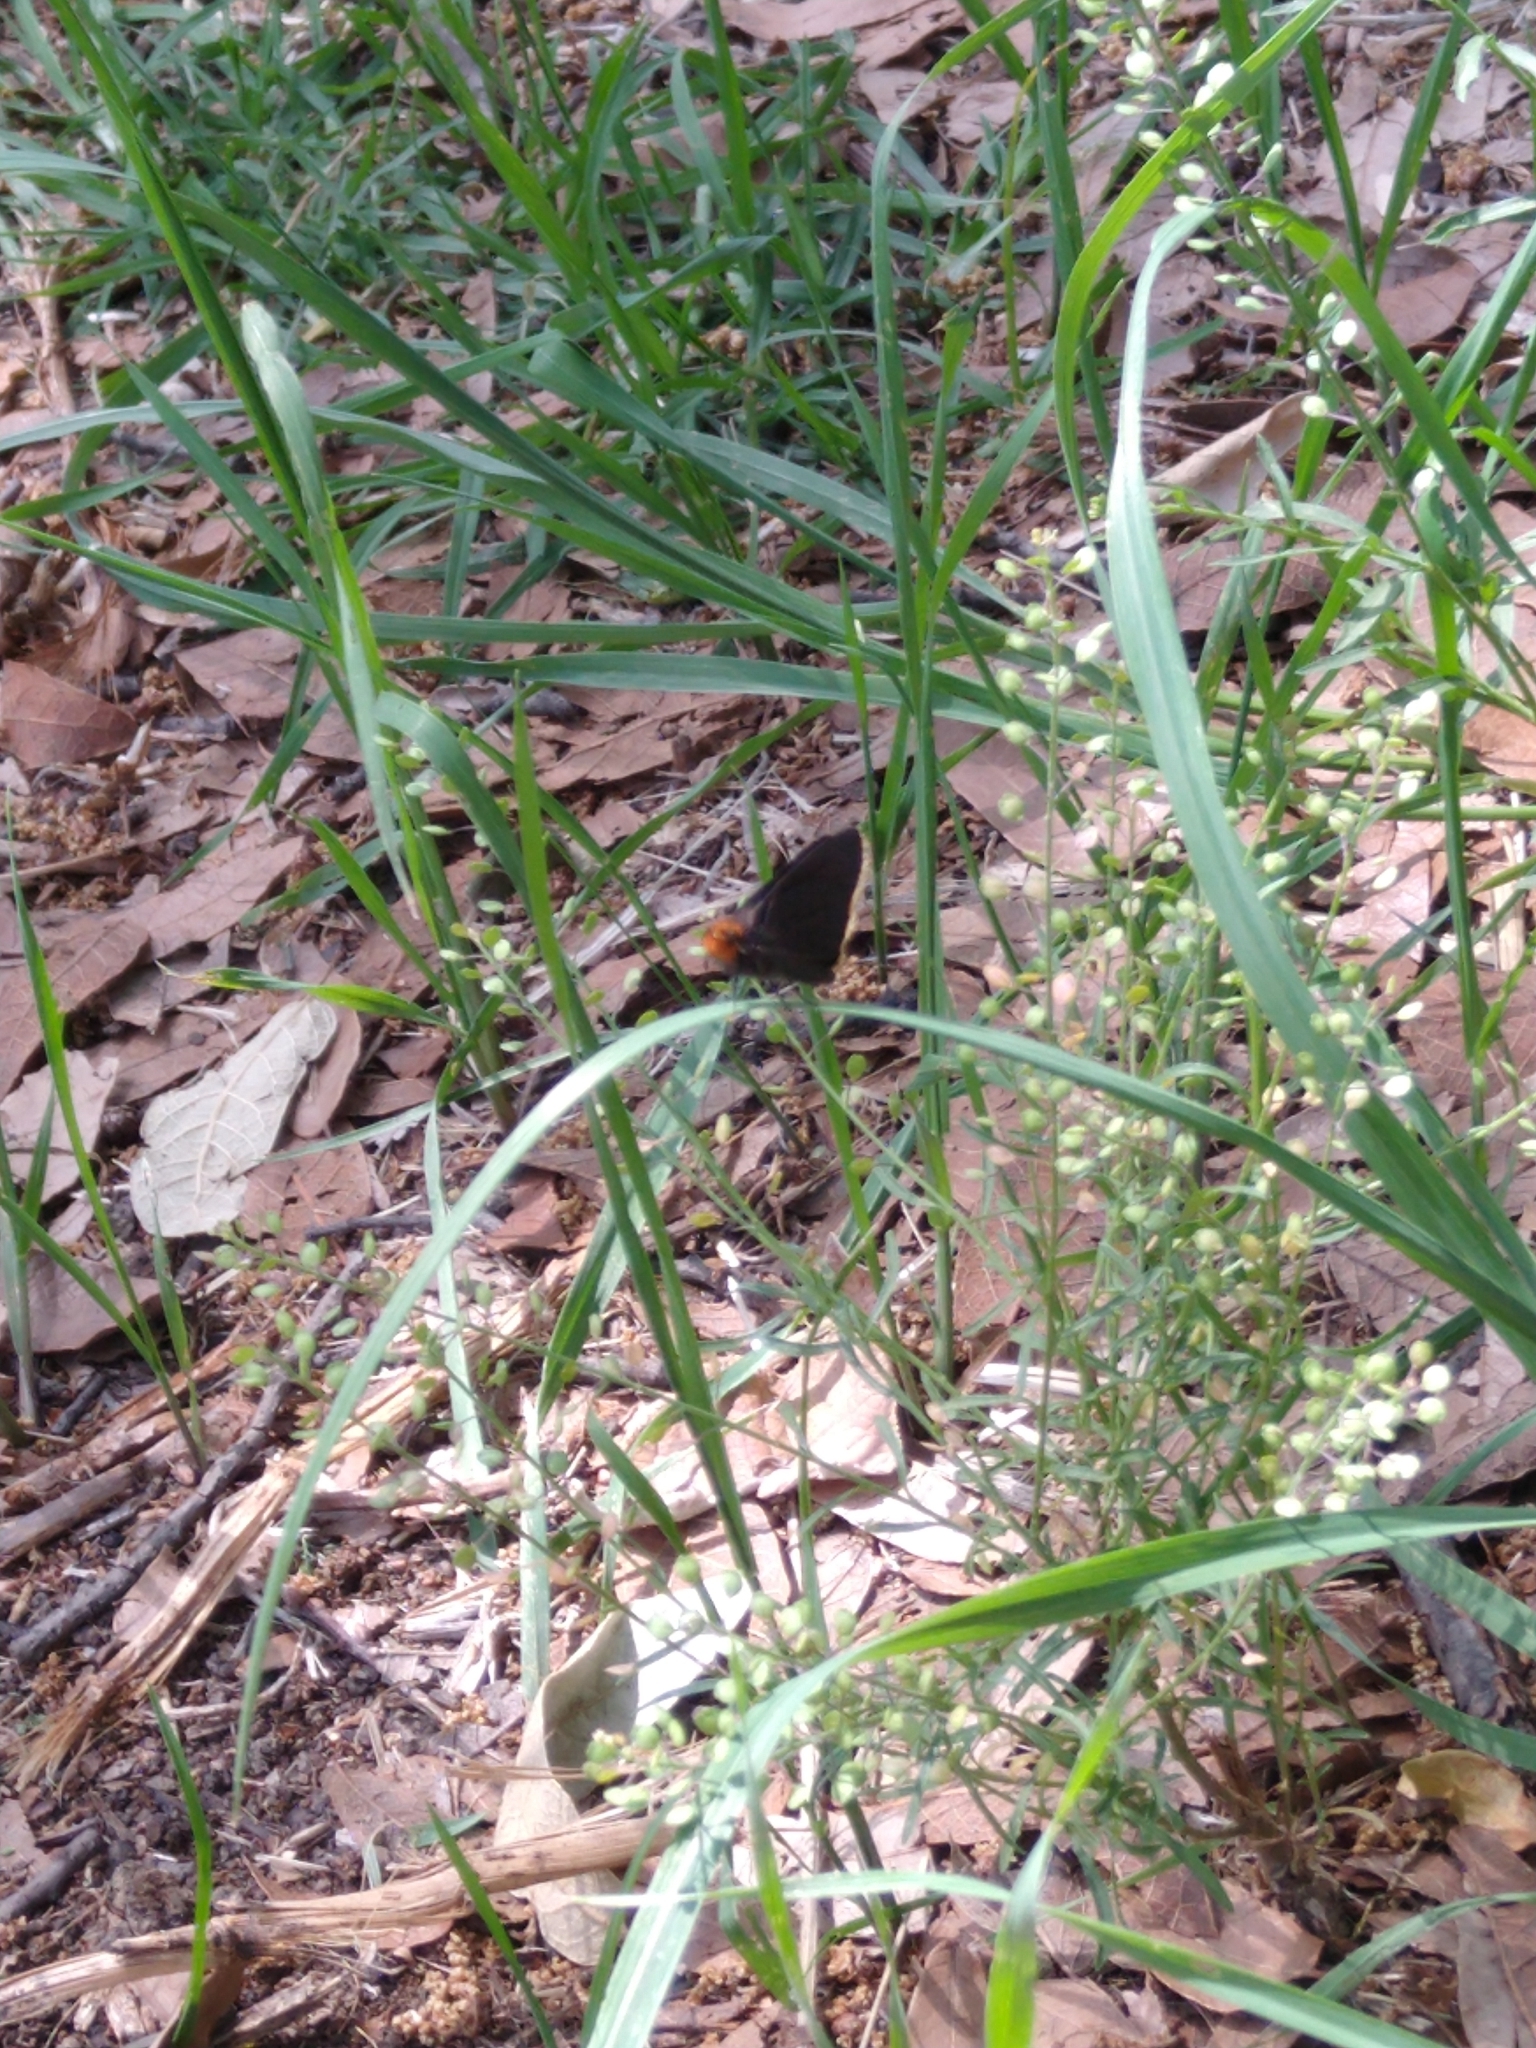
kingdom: Animalia
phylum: Arthropoda
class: Insecta
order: Lepidoptera
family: Hesperiidae
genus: Mastor
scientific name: Mastor fimbriata
